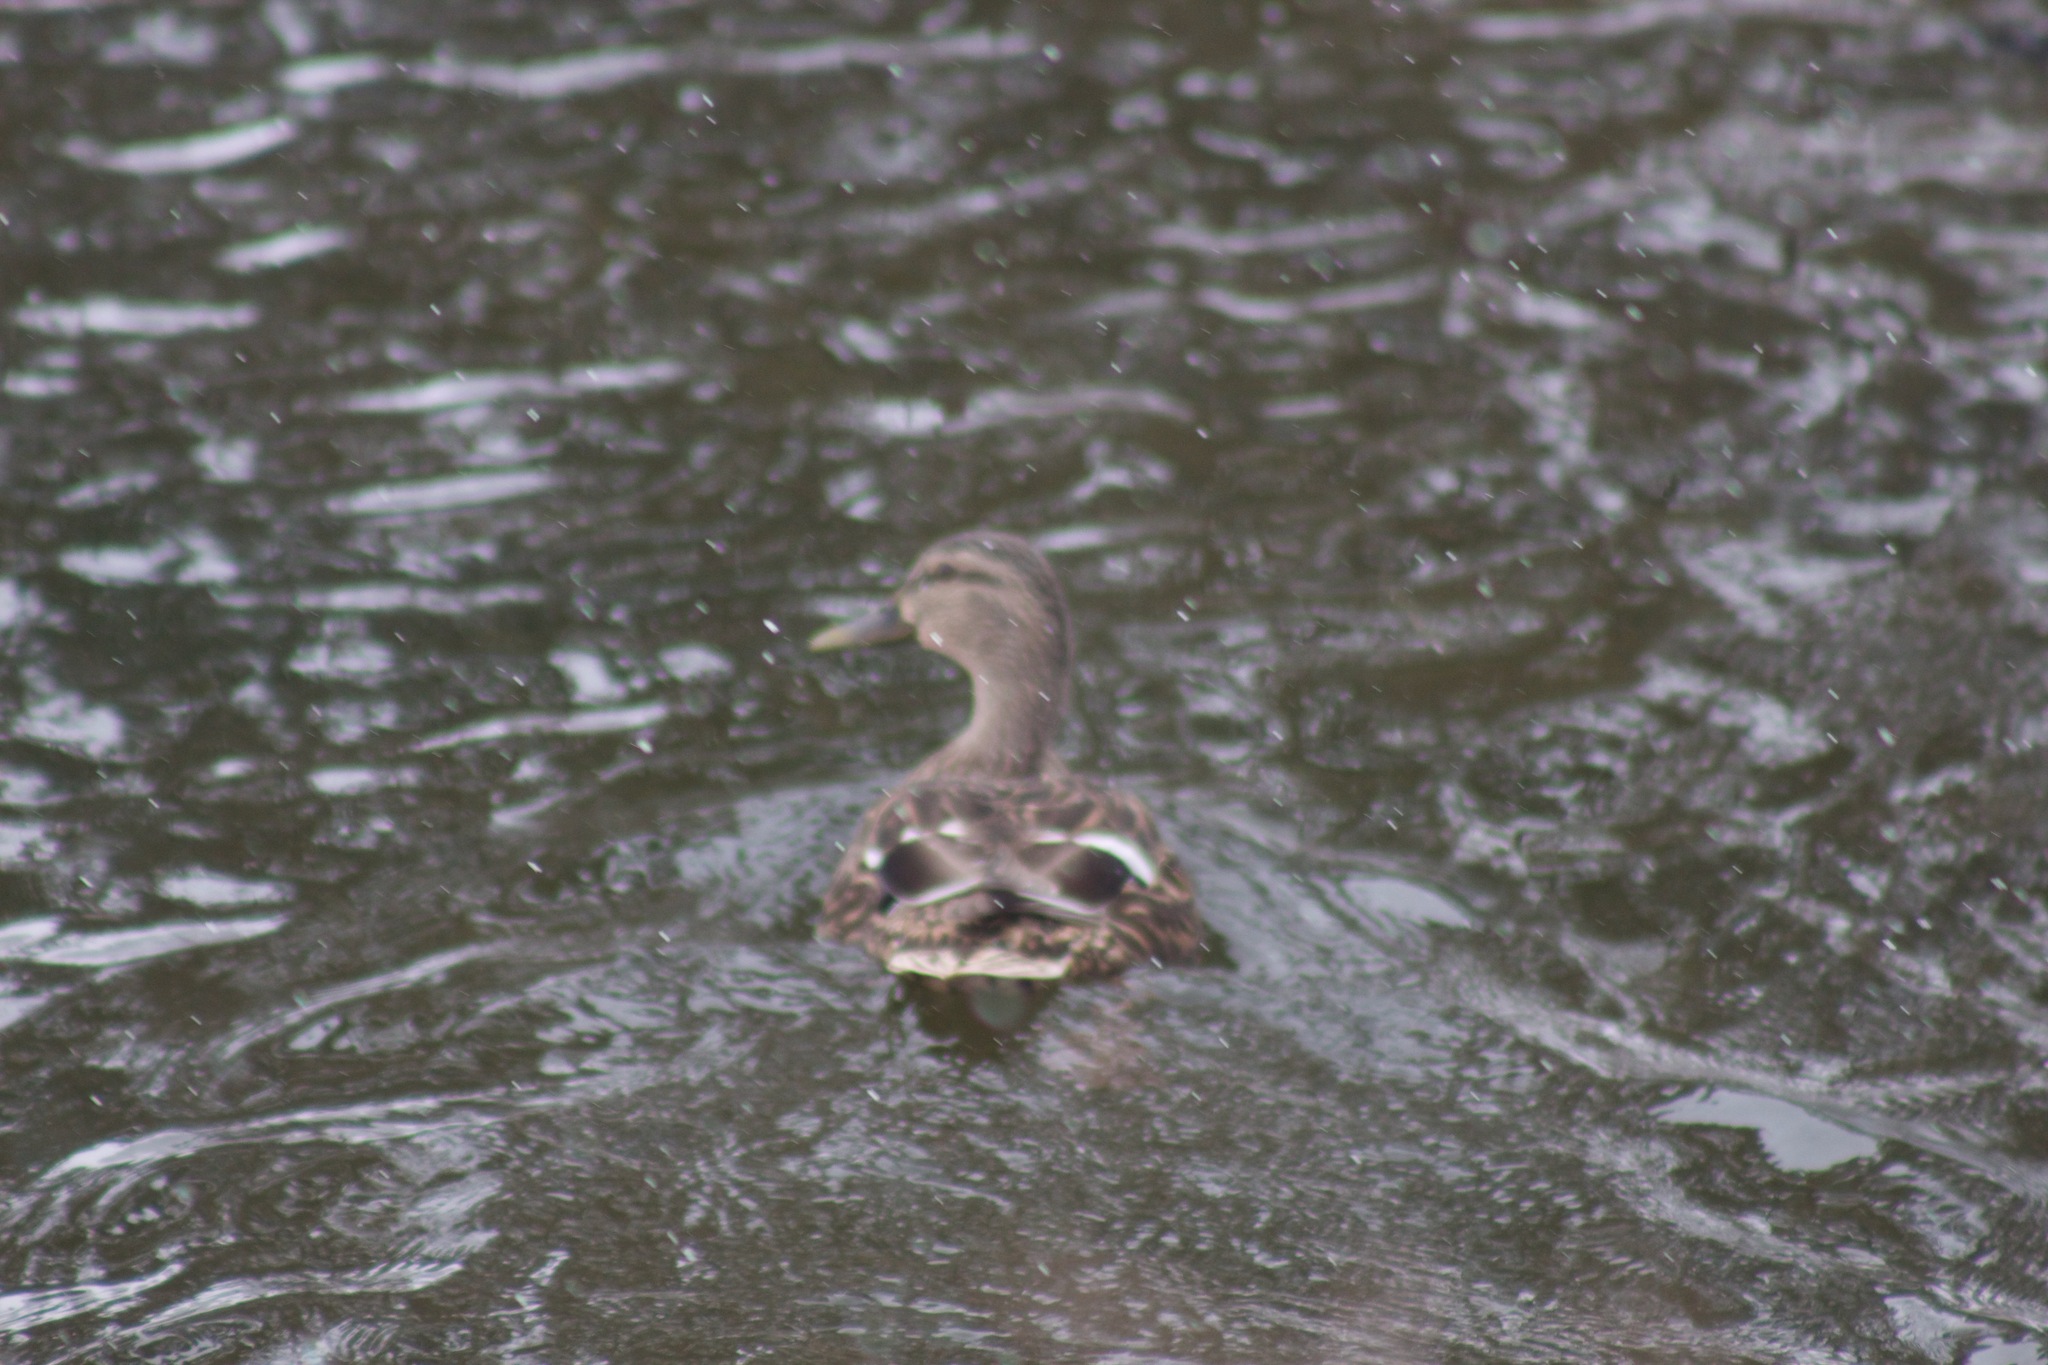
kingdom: Animalia
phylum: Chordata
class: Aves
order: Anseriformes
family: Anatidae
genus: Anas
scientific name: Anas platyrhynchos
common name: Mallard
